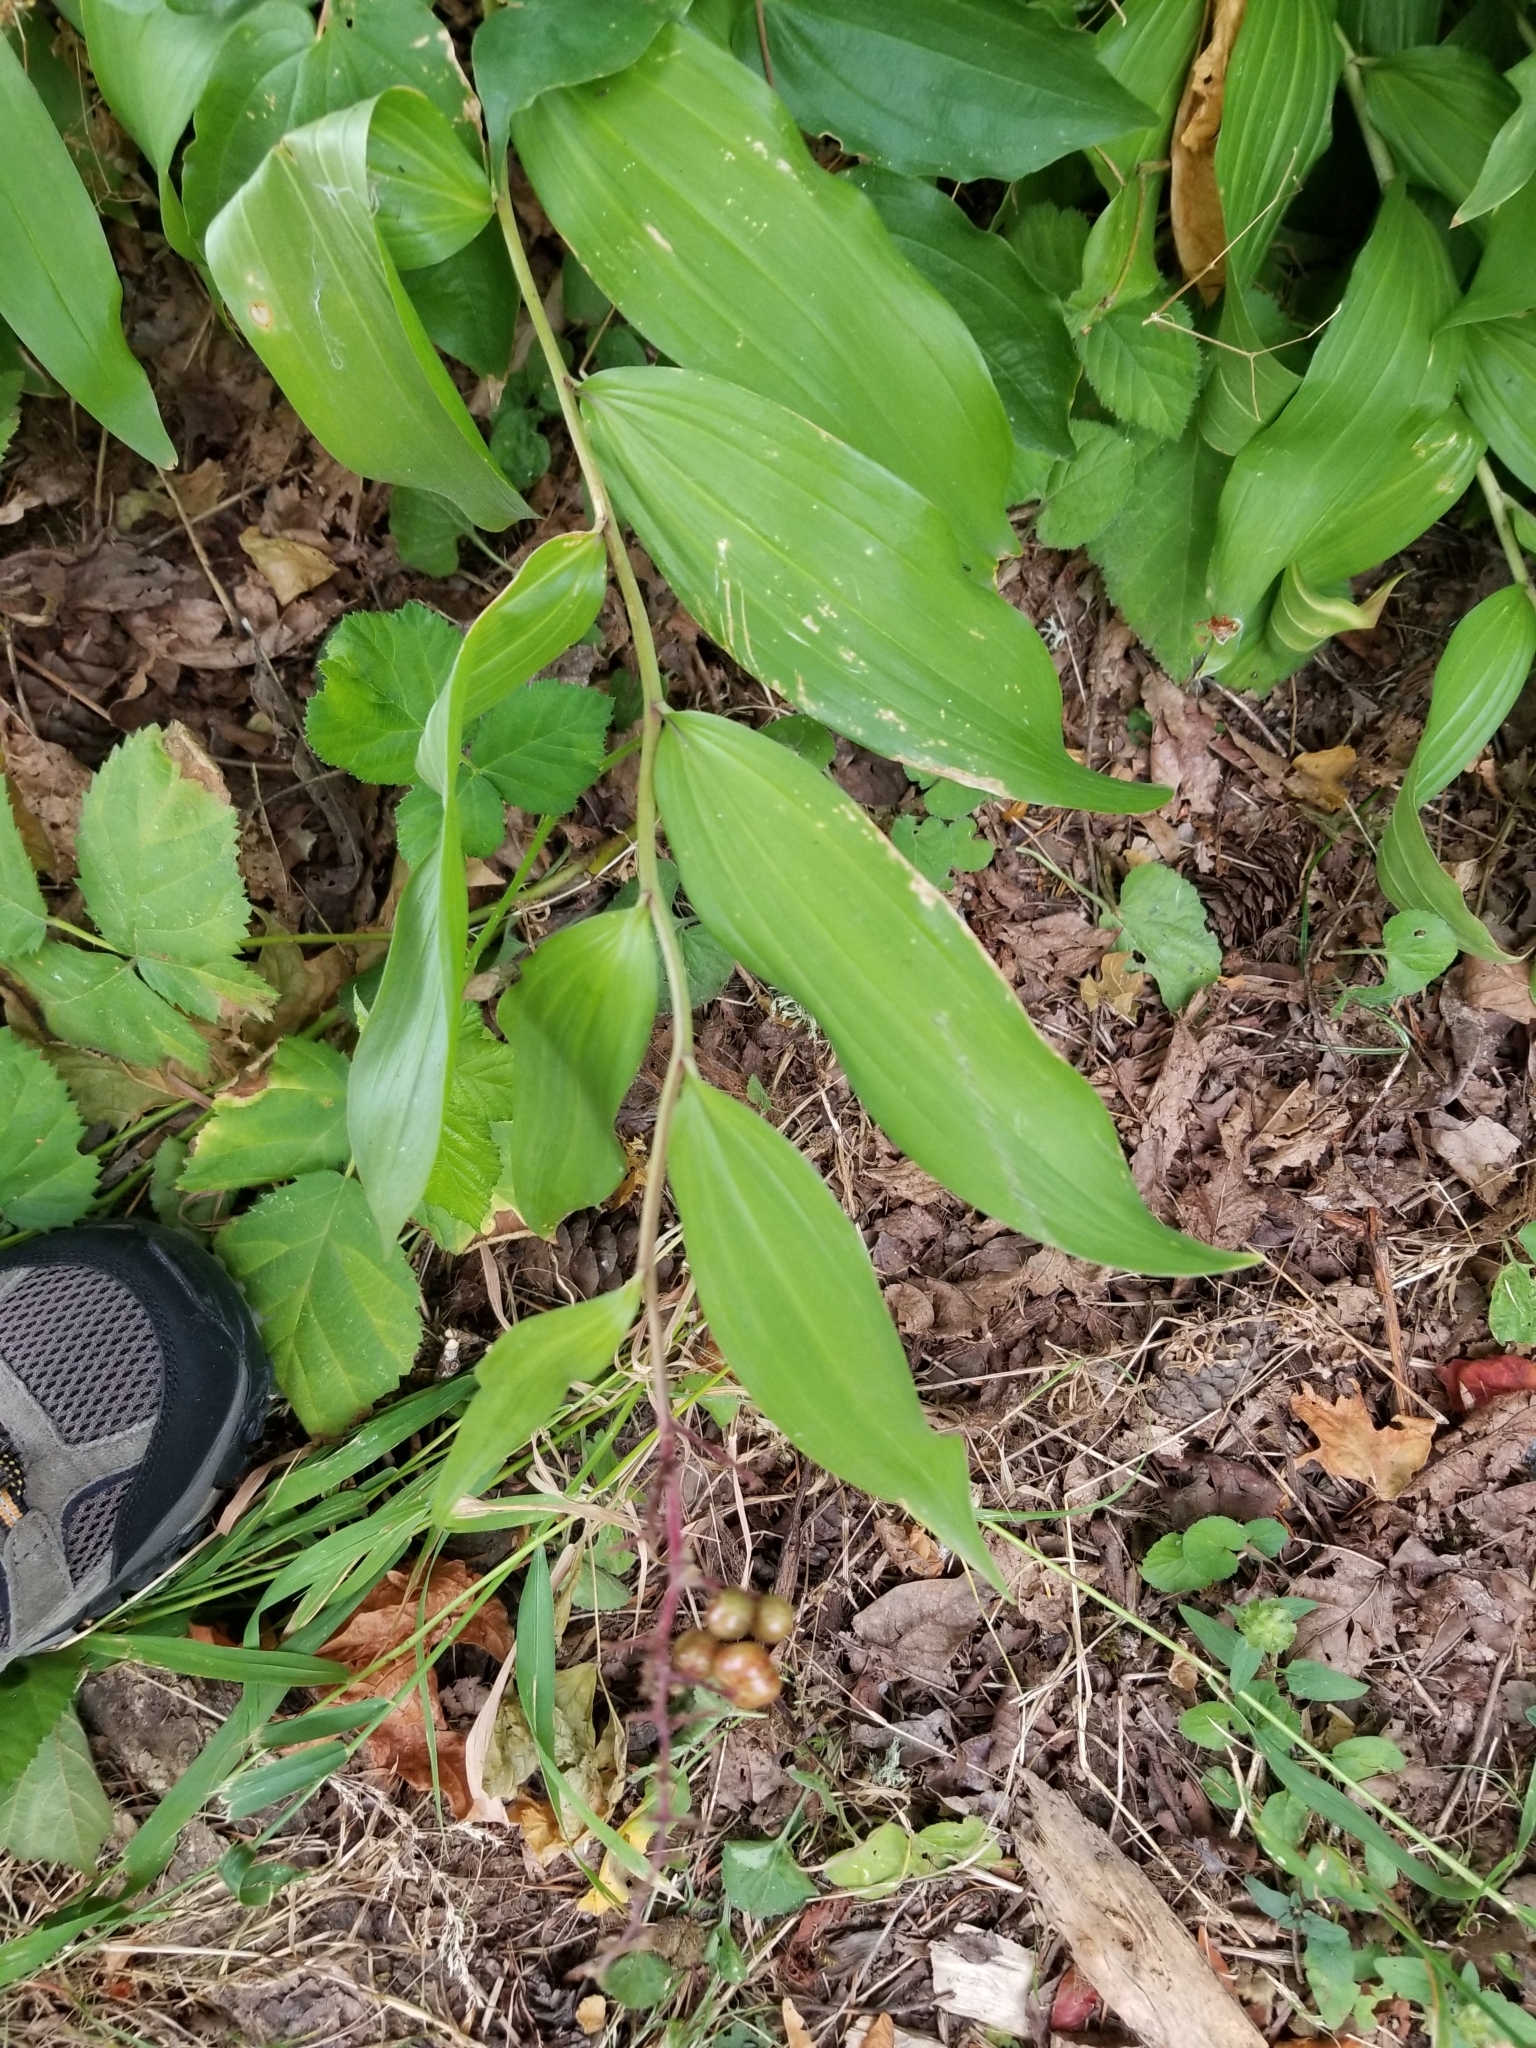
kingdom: Plantae
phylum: Tracheophyta
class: Liliopsida
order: Asparagales
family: Asparagaceae
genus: Maianthemum
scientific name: Maianthemum racemosum
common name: False spikenard
